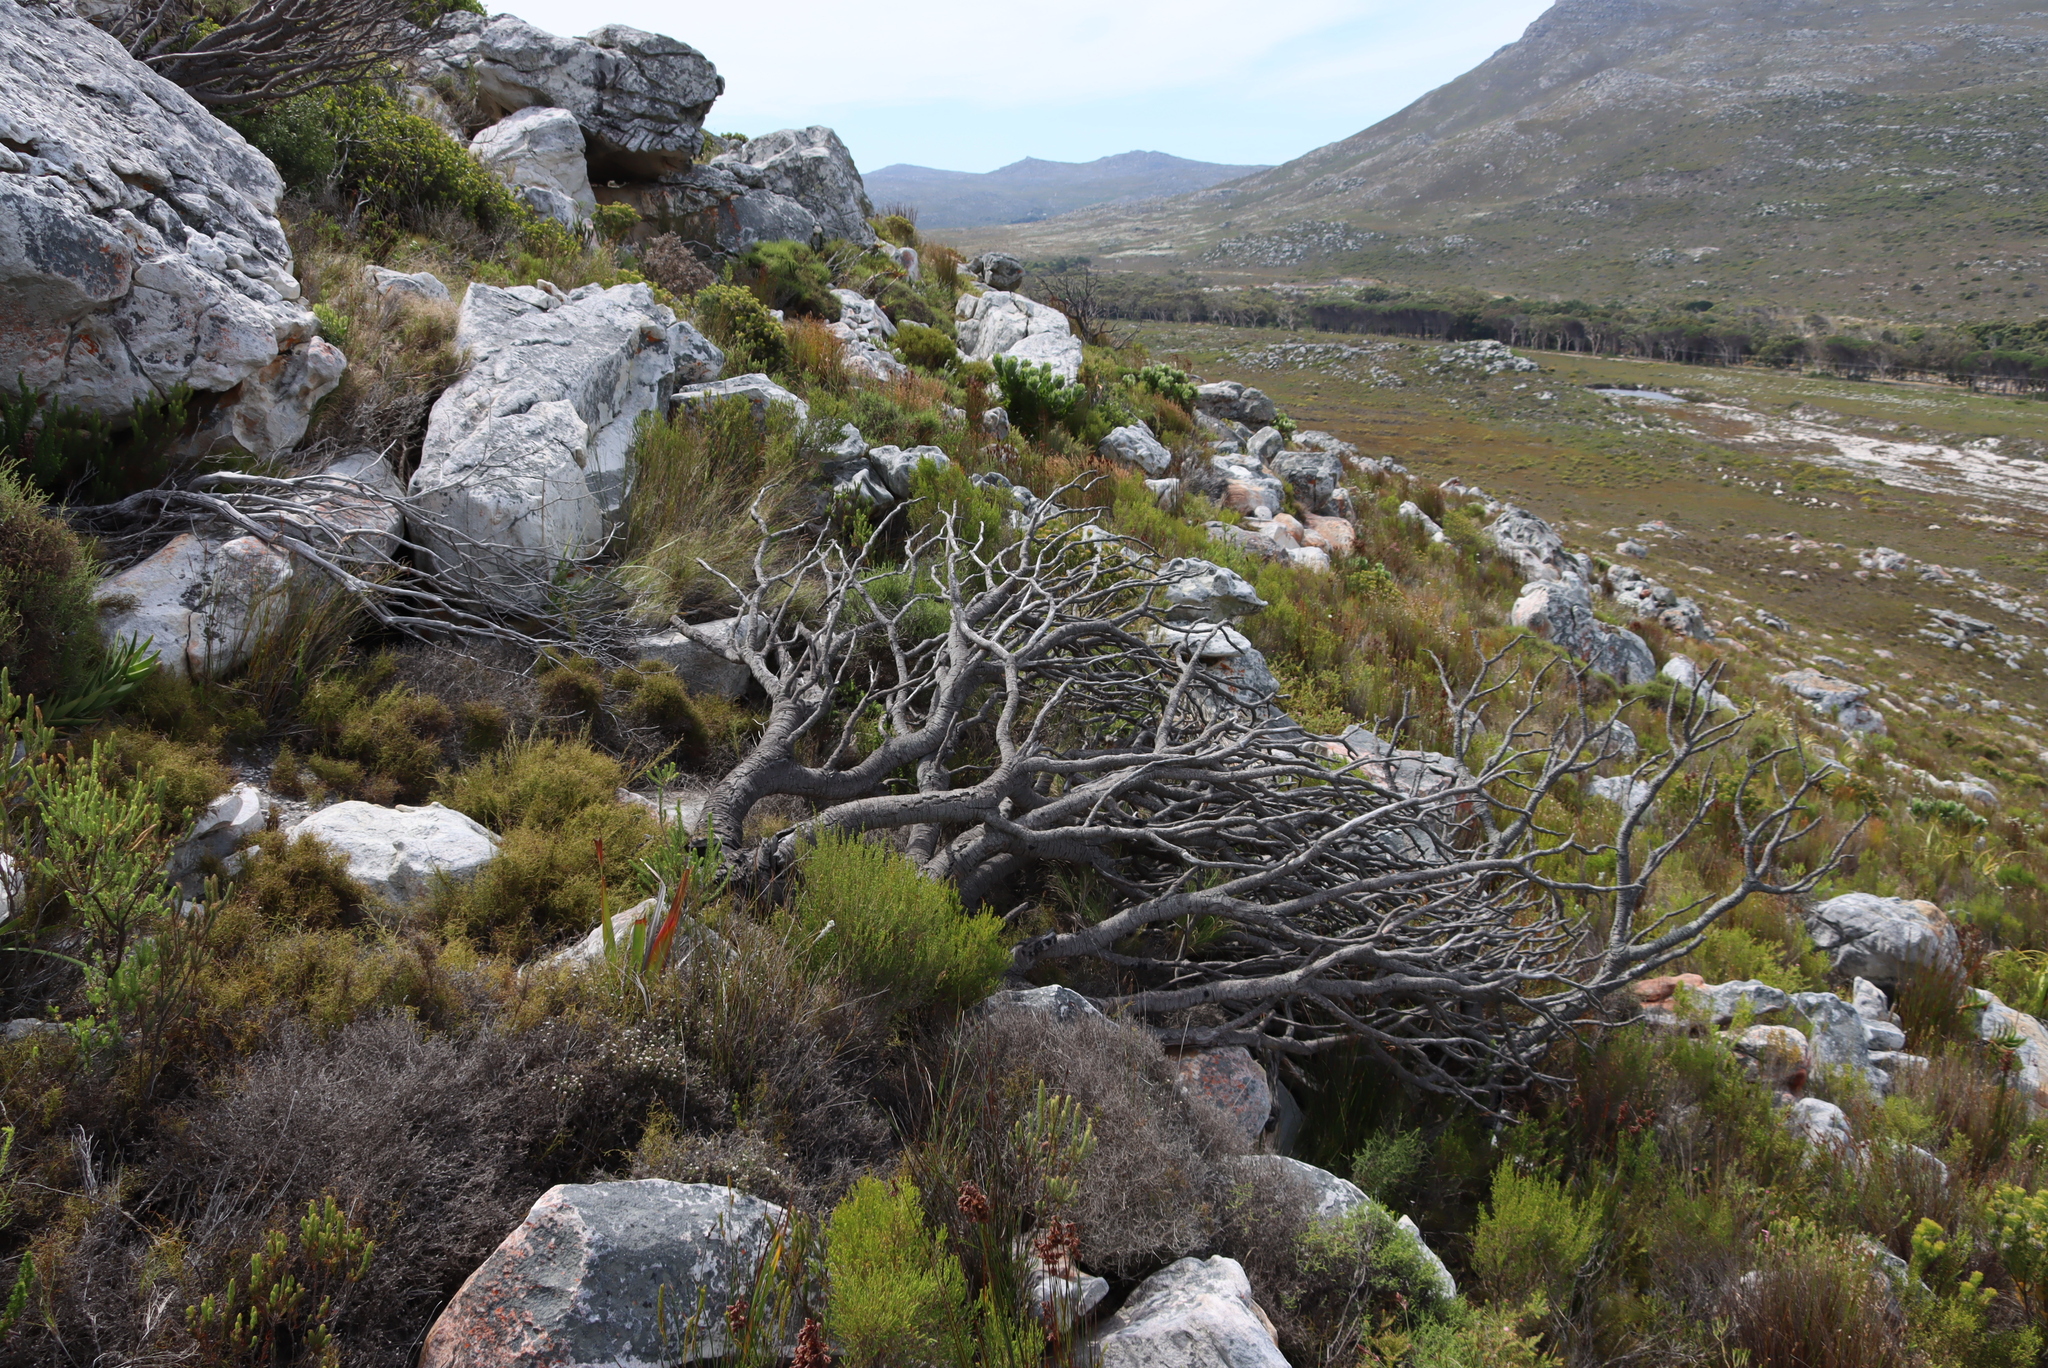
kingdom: Plantae
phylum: Tracheophyta
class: Magnoliopsida
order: Proteales
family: Proteaceae
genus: Leucospermum
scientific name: Leucospermum conocarpodendron
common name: Tree pincushion
